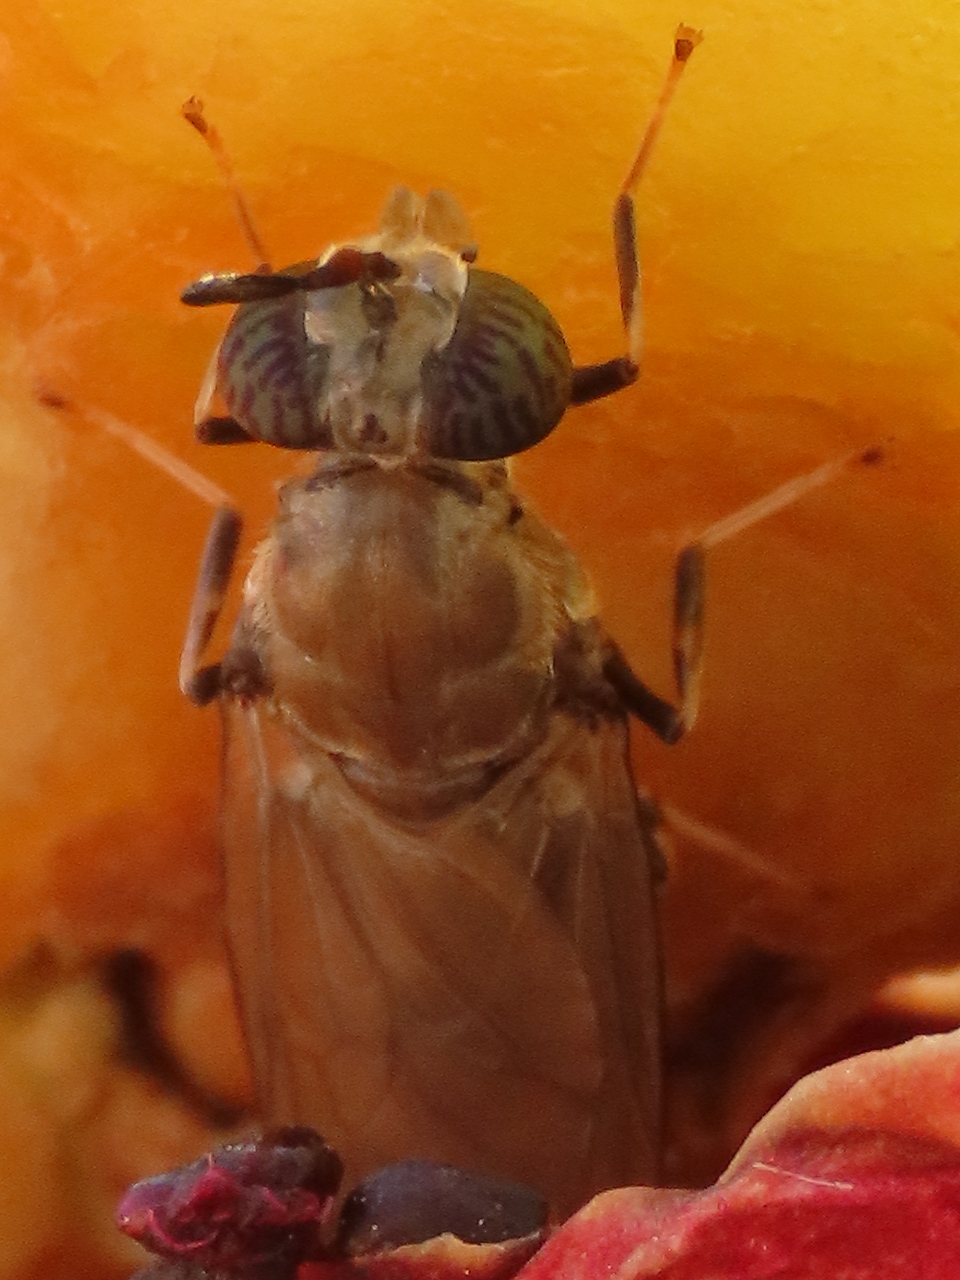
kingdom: Animalia
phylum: Arthropoda
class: Insecta
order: Diptera
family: Stratiomyidae
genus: Hermetia
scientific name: Hermetia illucens
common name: Black soldier fly
